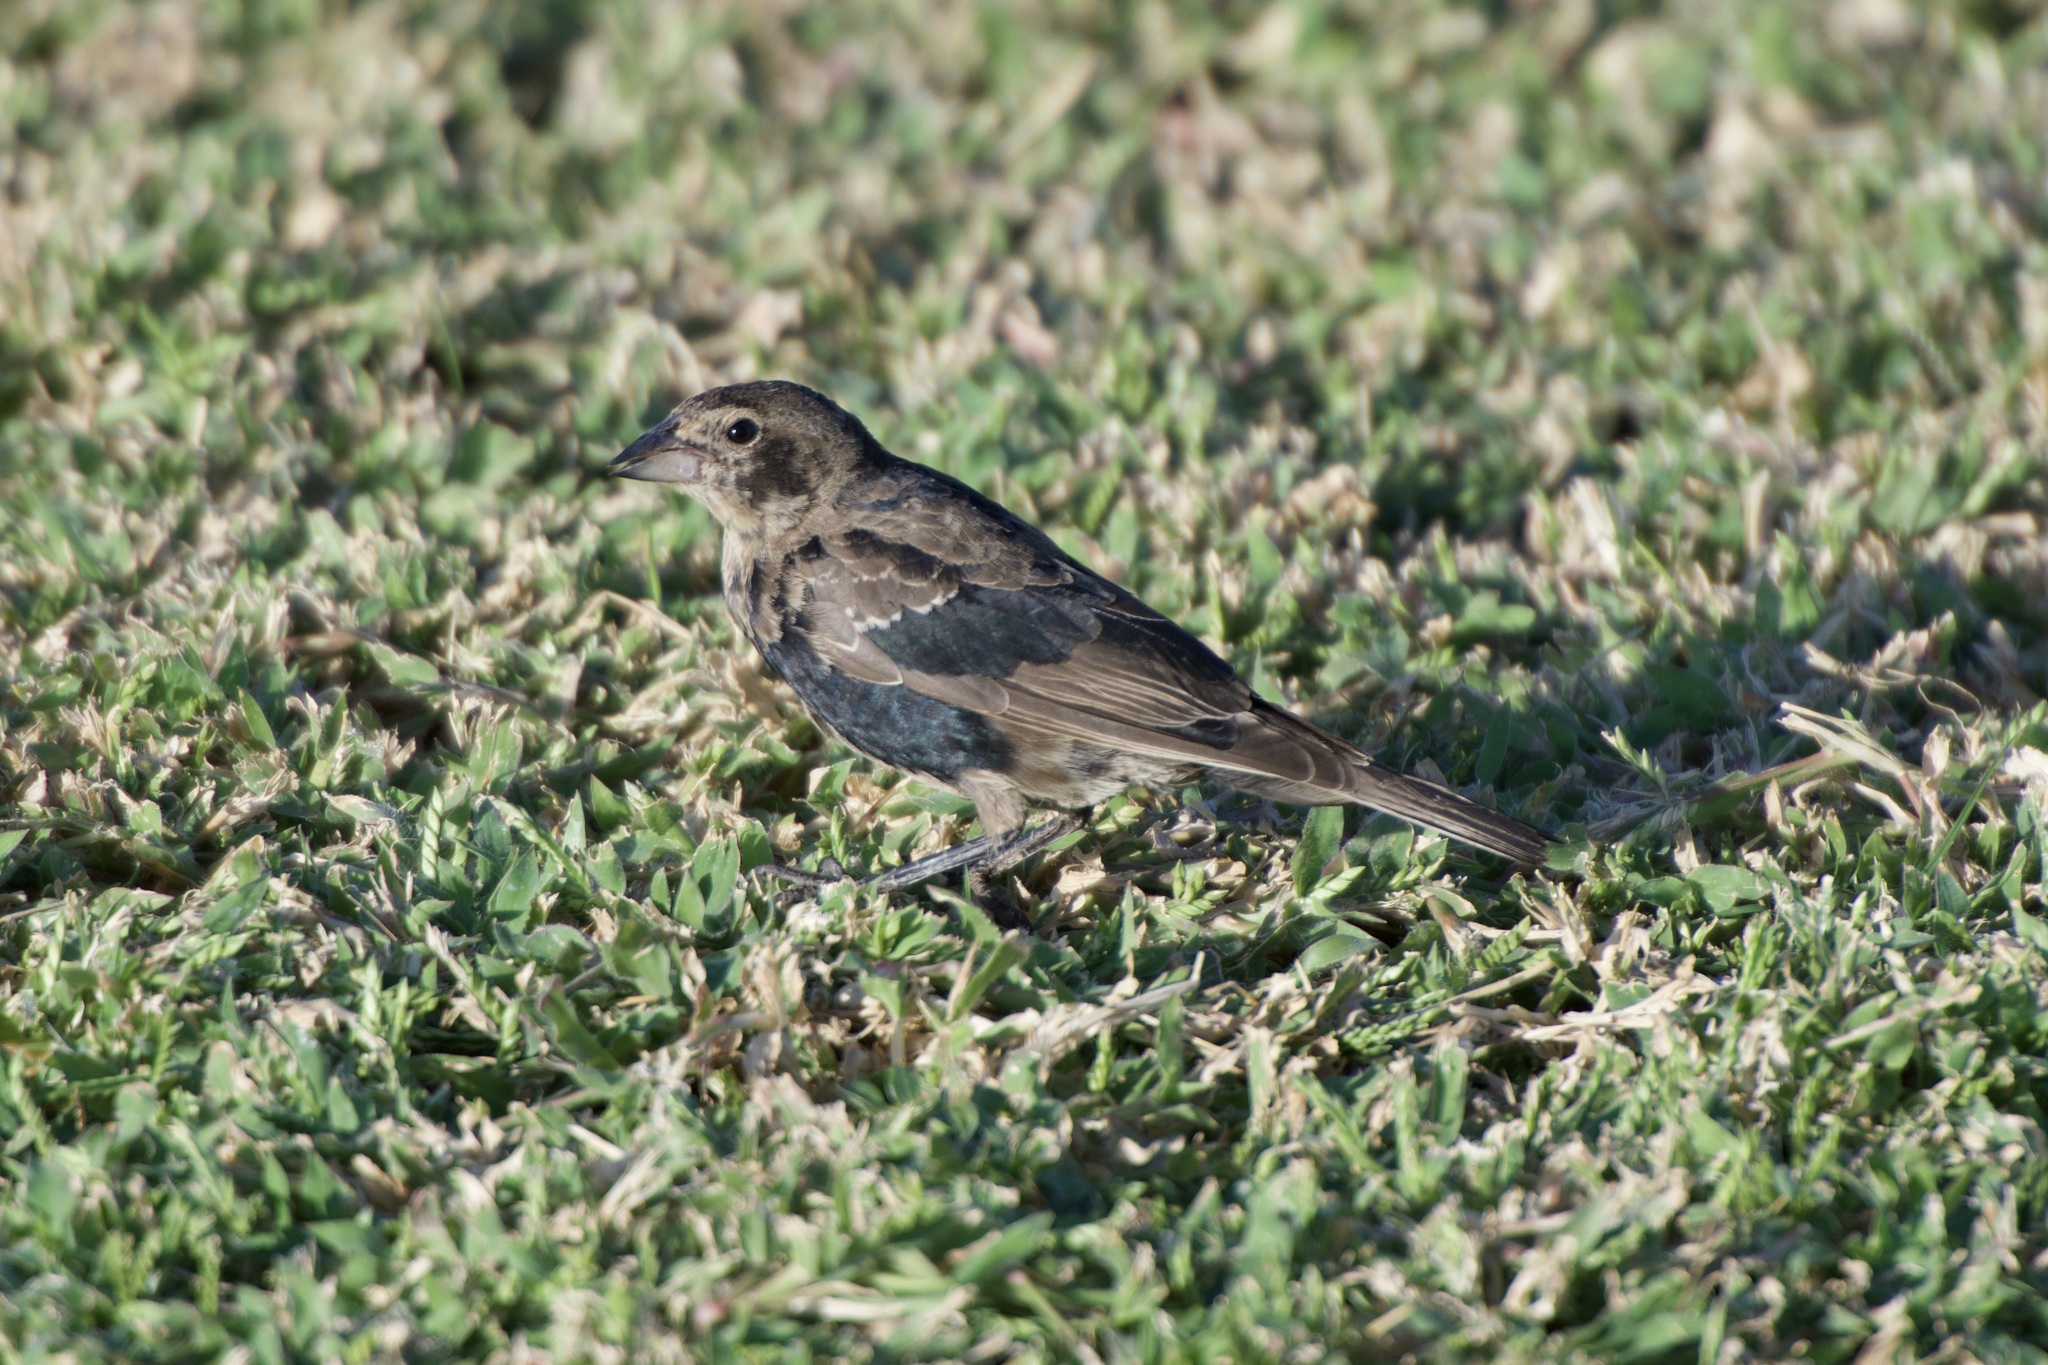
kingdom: Animalia
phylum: Chordata
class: Aves
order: Passeriformes
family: Icteridae
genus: Molothrus
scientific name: Molothrus ater
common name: Brown-headed cowbird
